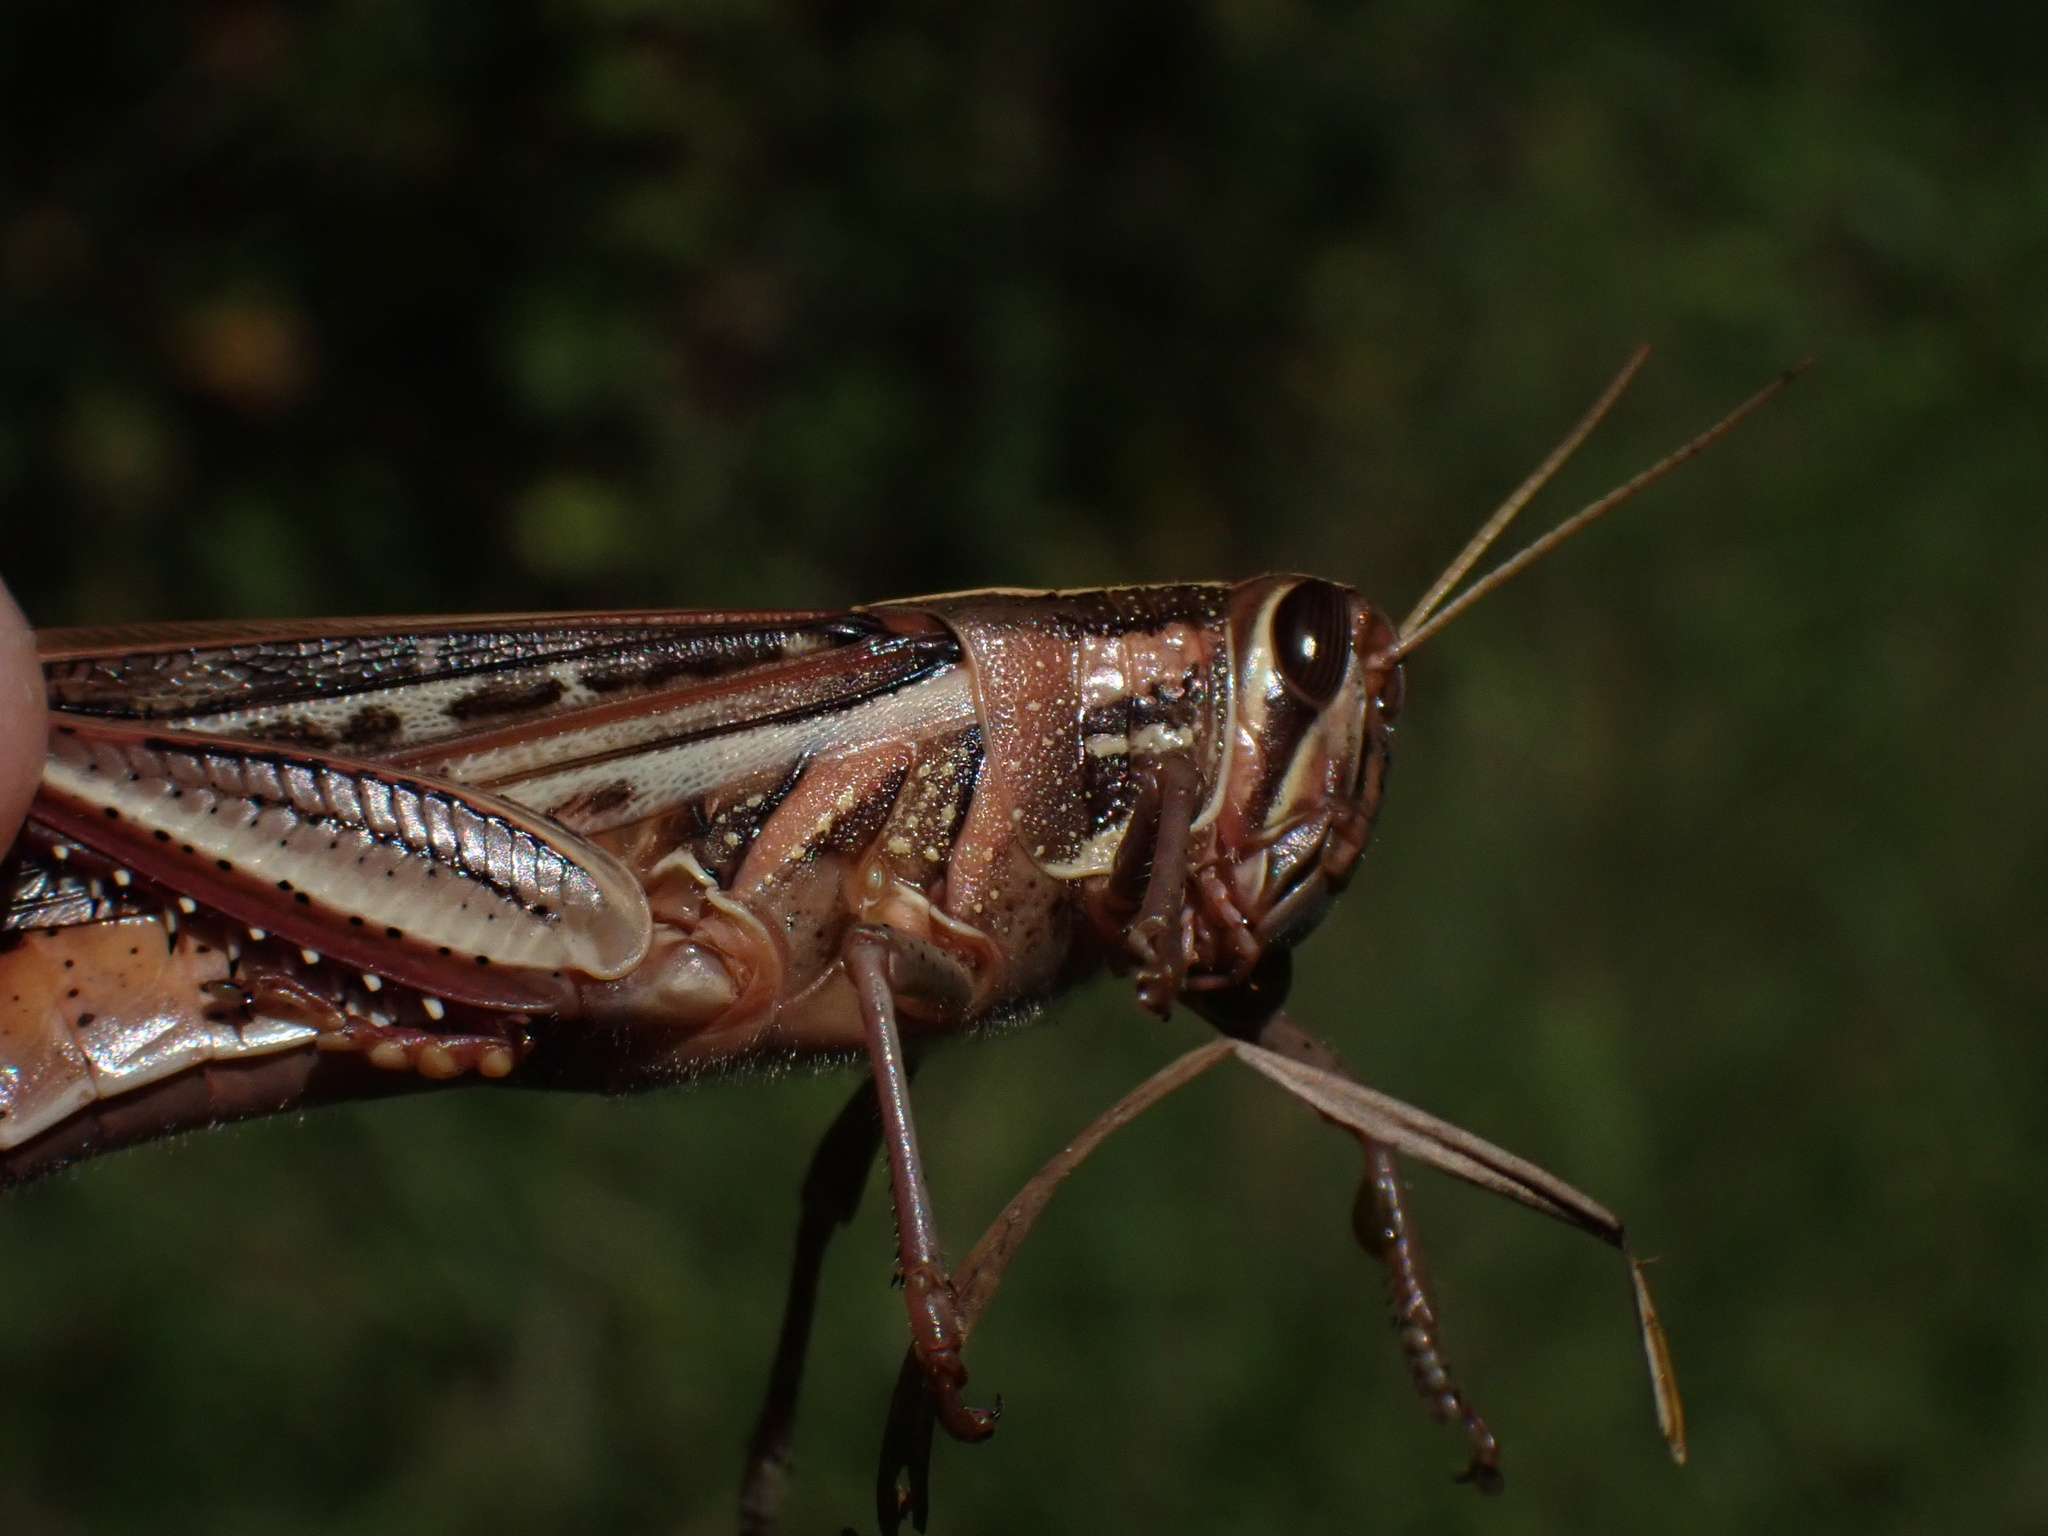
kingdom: Animalia
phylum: Arthropoda
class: Insecta
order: Orthoptera
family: Acrididae
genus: Schistocerca
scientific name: Schistocerca americana
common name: American bird locust
